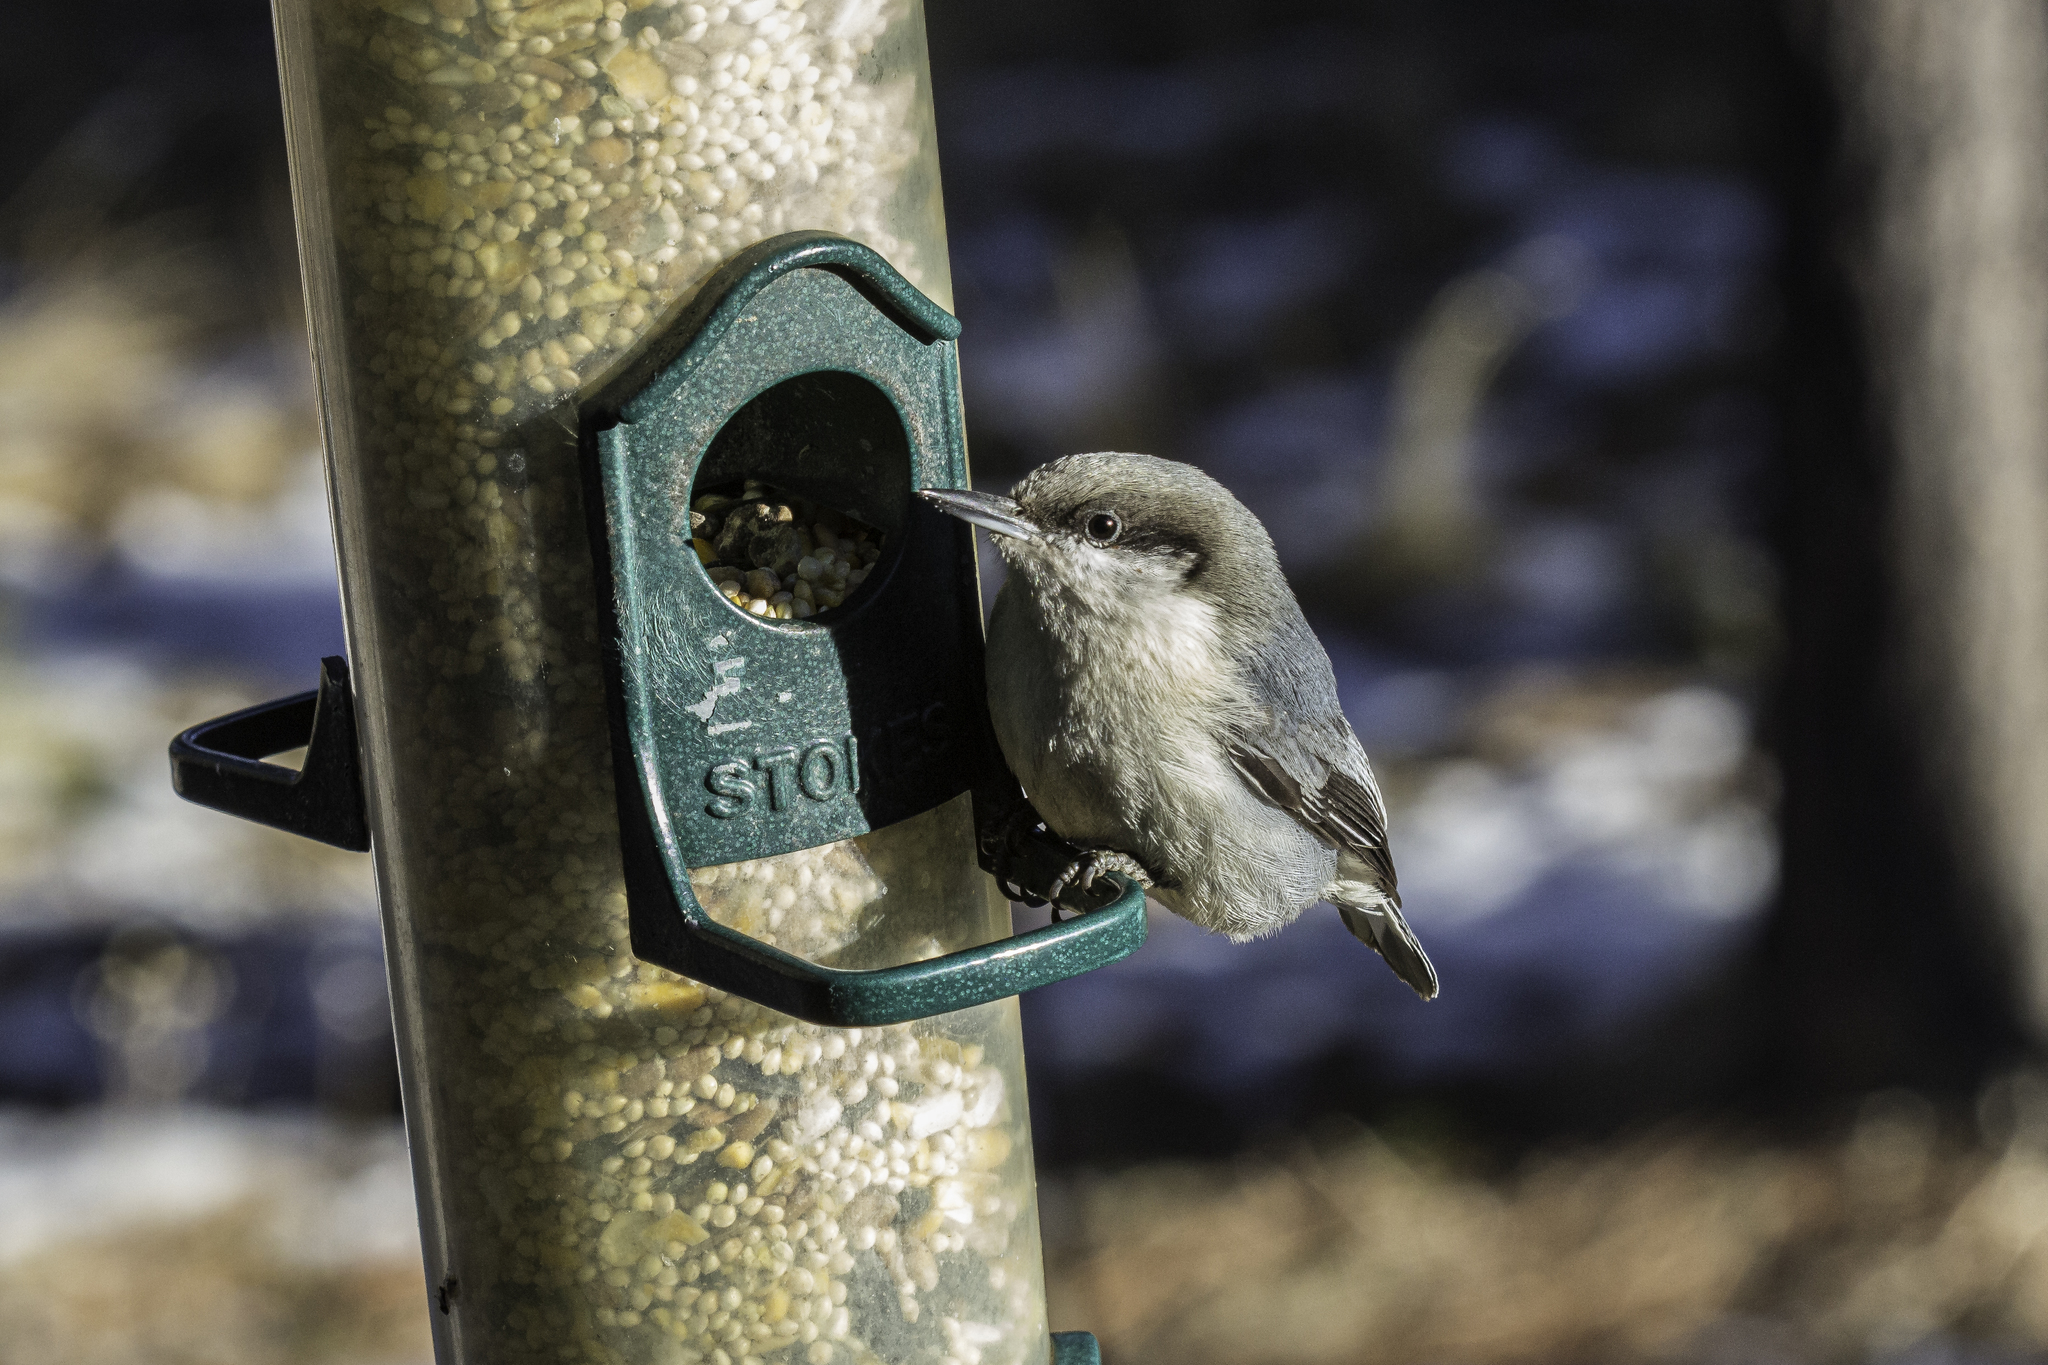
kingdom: Animalia
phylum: Chordata
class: Aves
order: Passeriformes
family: Sittidae
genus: Sitta
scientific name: Sitta pygmaea
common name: Pygmy nuthatch
